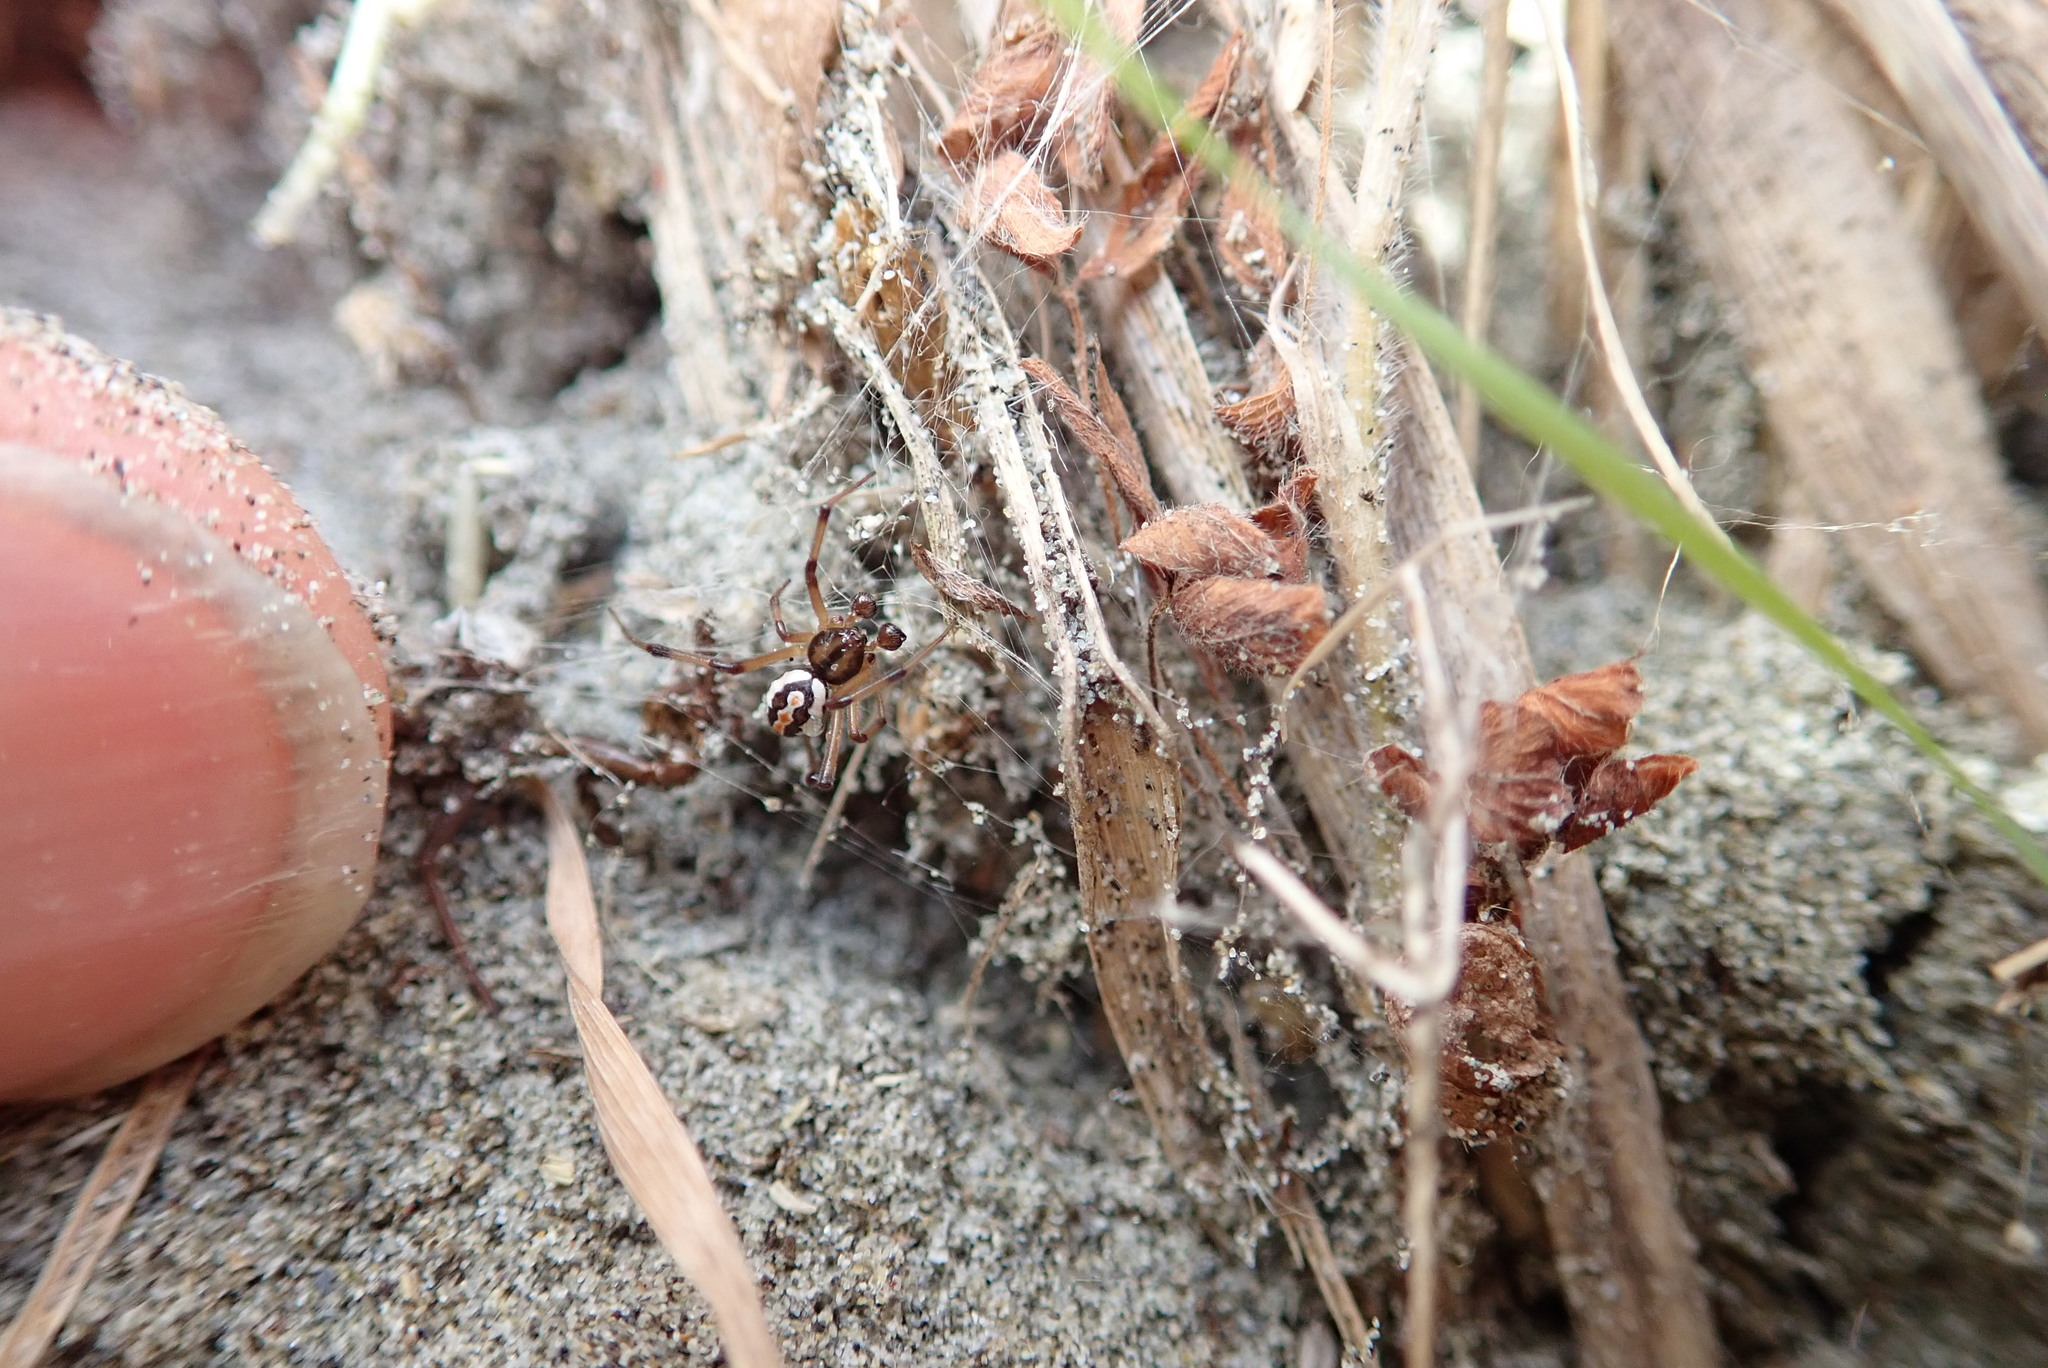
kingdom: Animalia
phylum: Arthropoda
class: Arachnida
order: Araneae
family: Theridiidae
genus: Latrodectus
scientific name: Latrodectus katipo
